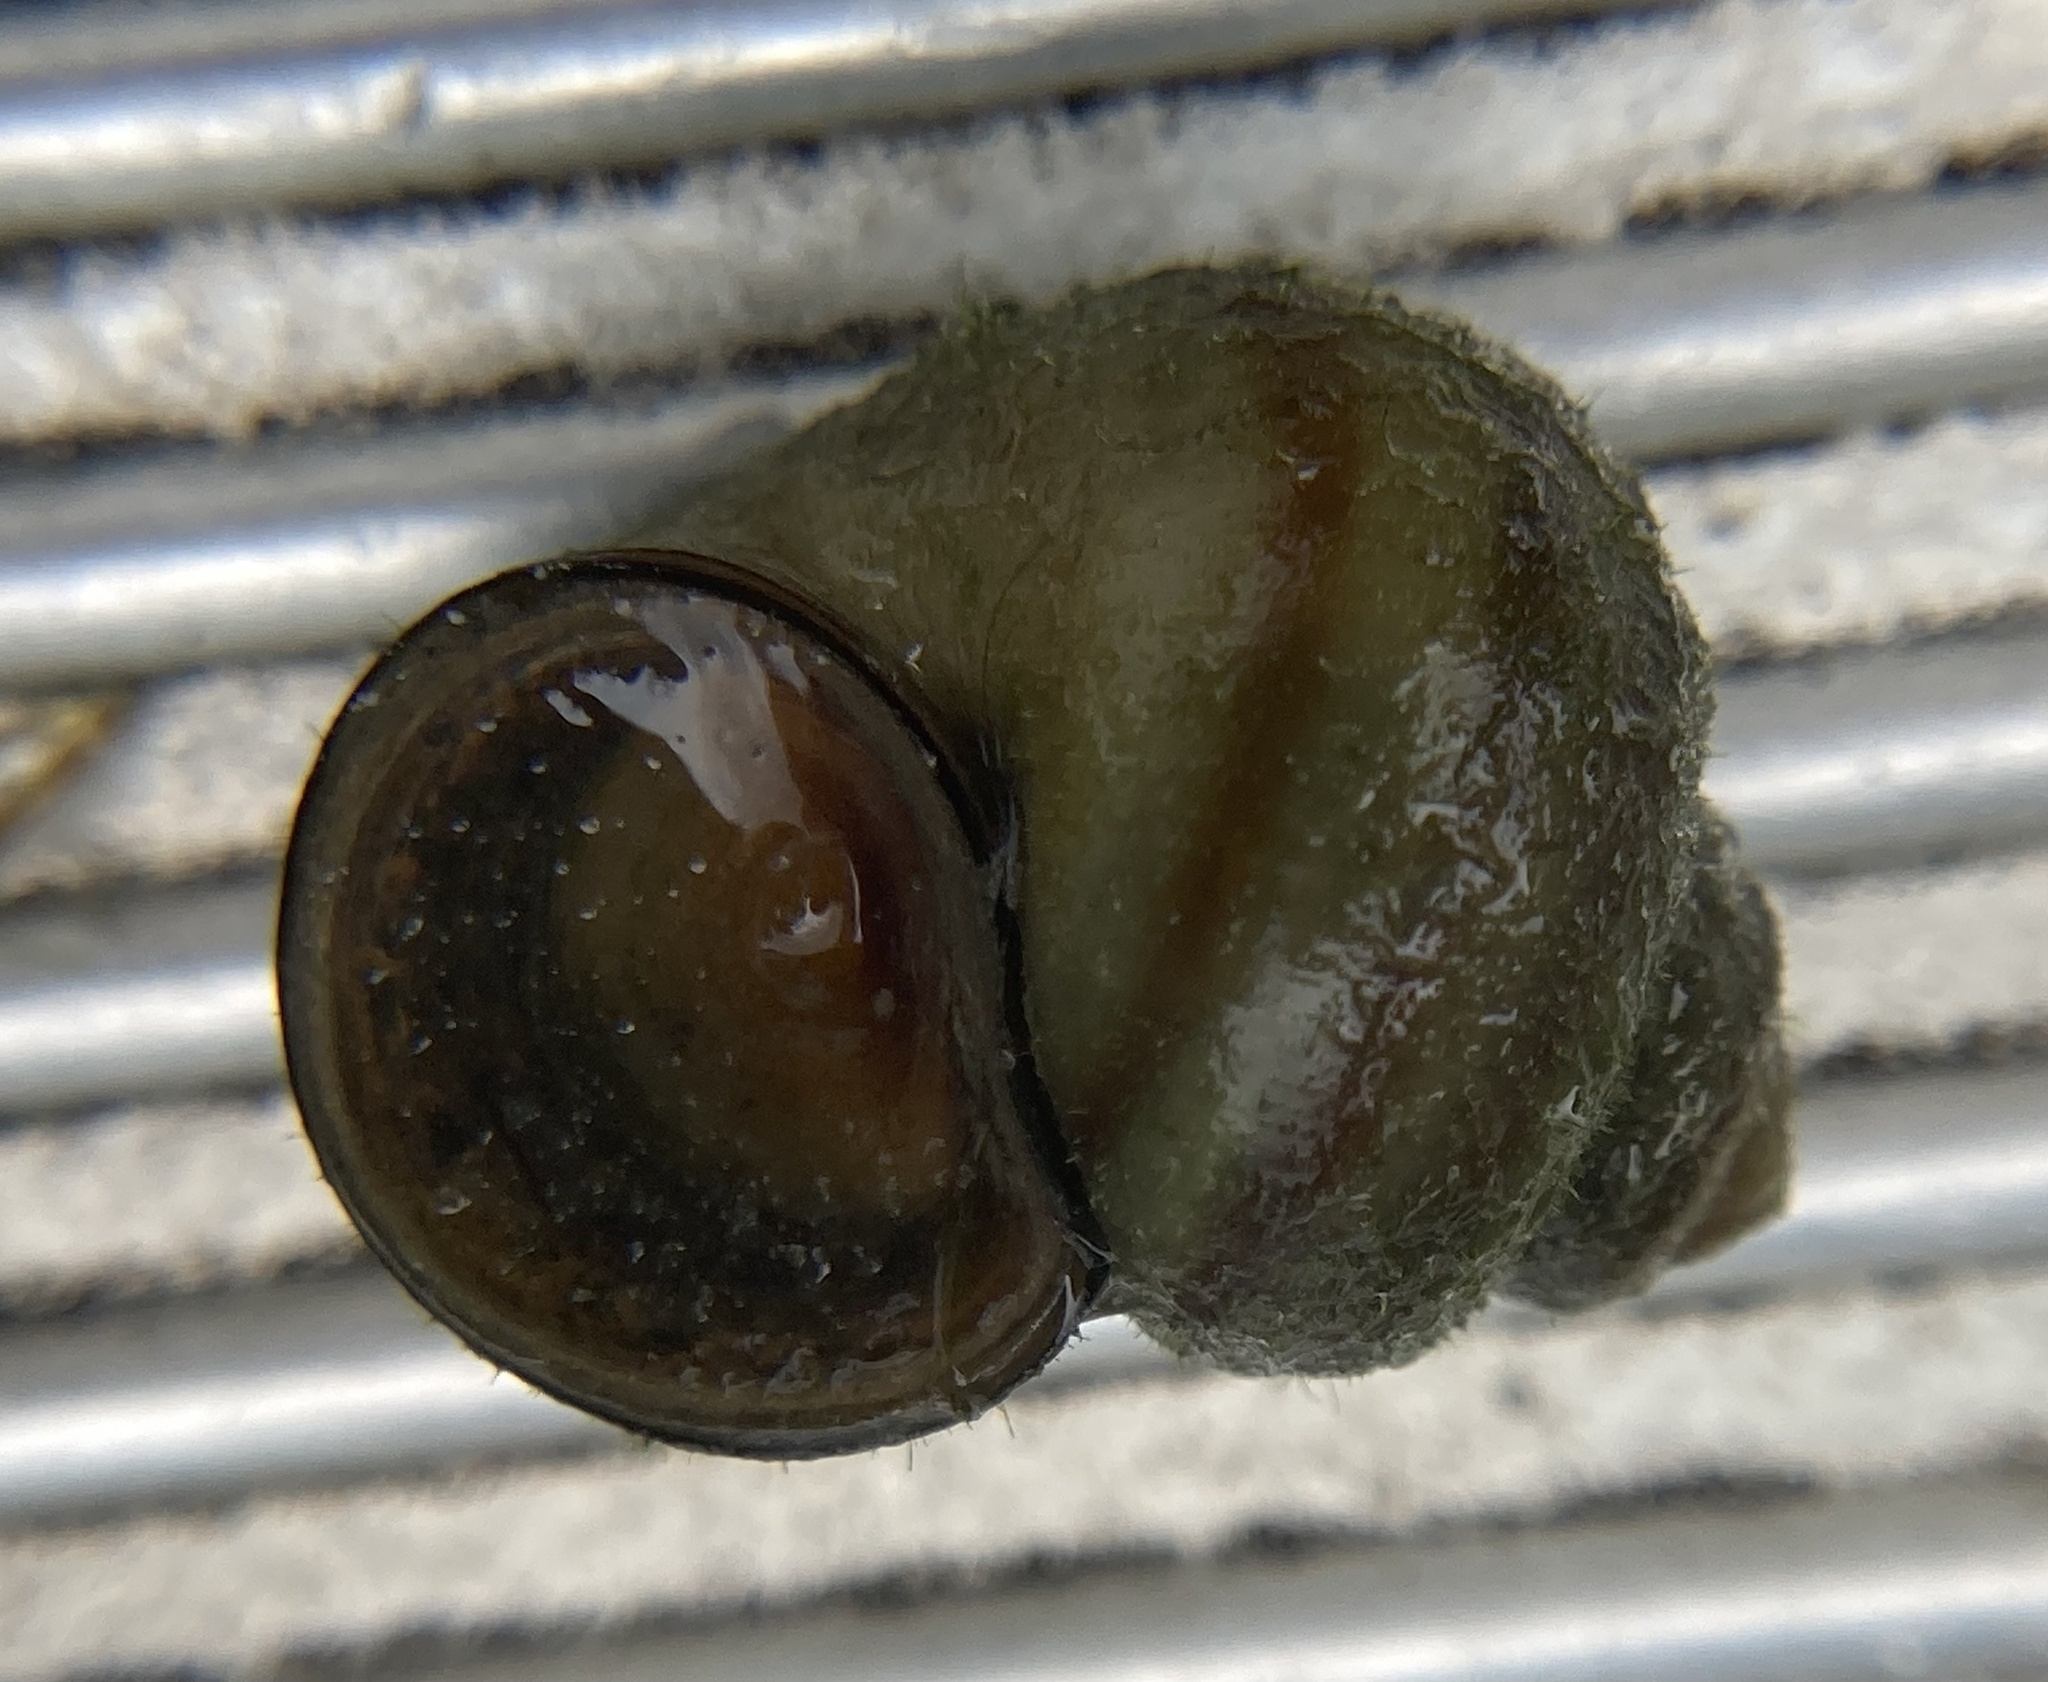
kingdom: Animalia
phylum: Mollusca
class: Gastropoda
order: Architaenioglossa
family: Viviparidae
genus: Callinina
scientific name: Callinina georgiana
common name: Banded mystery snail
